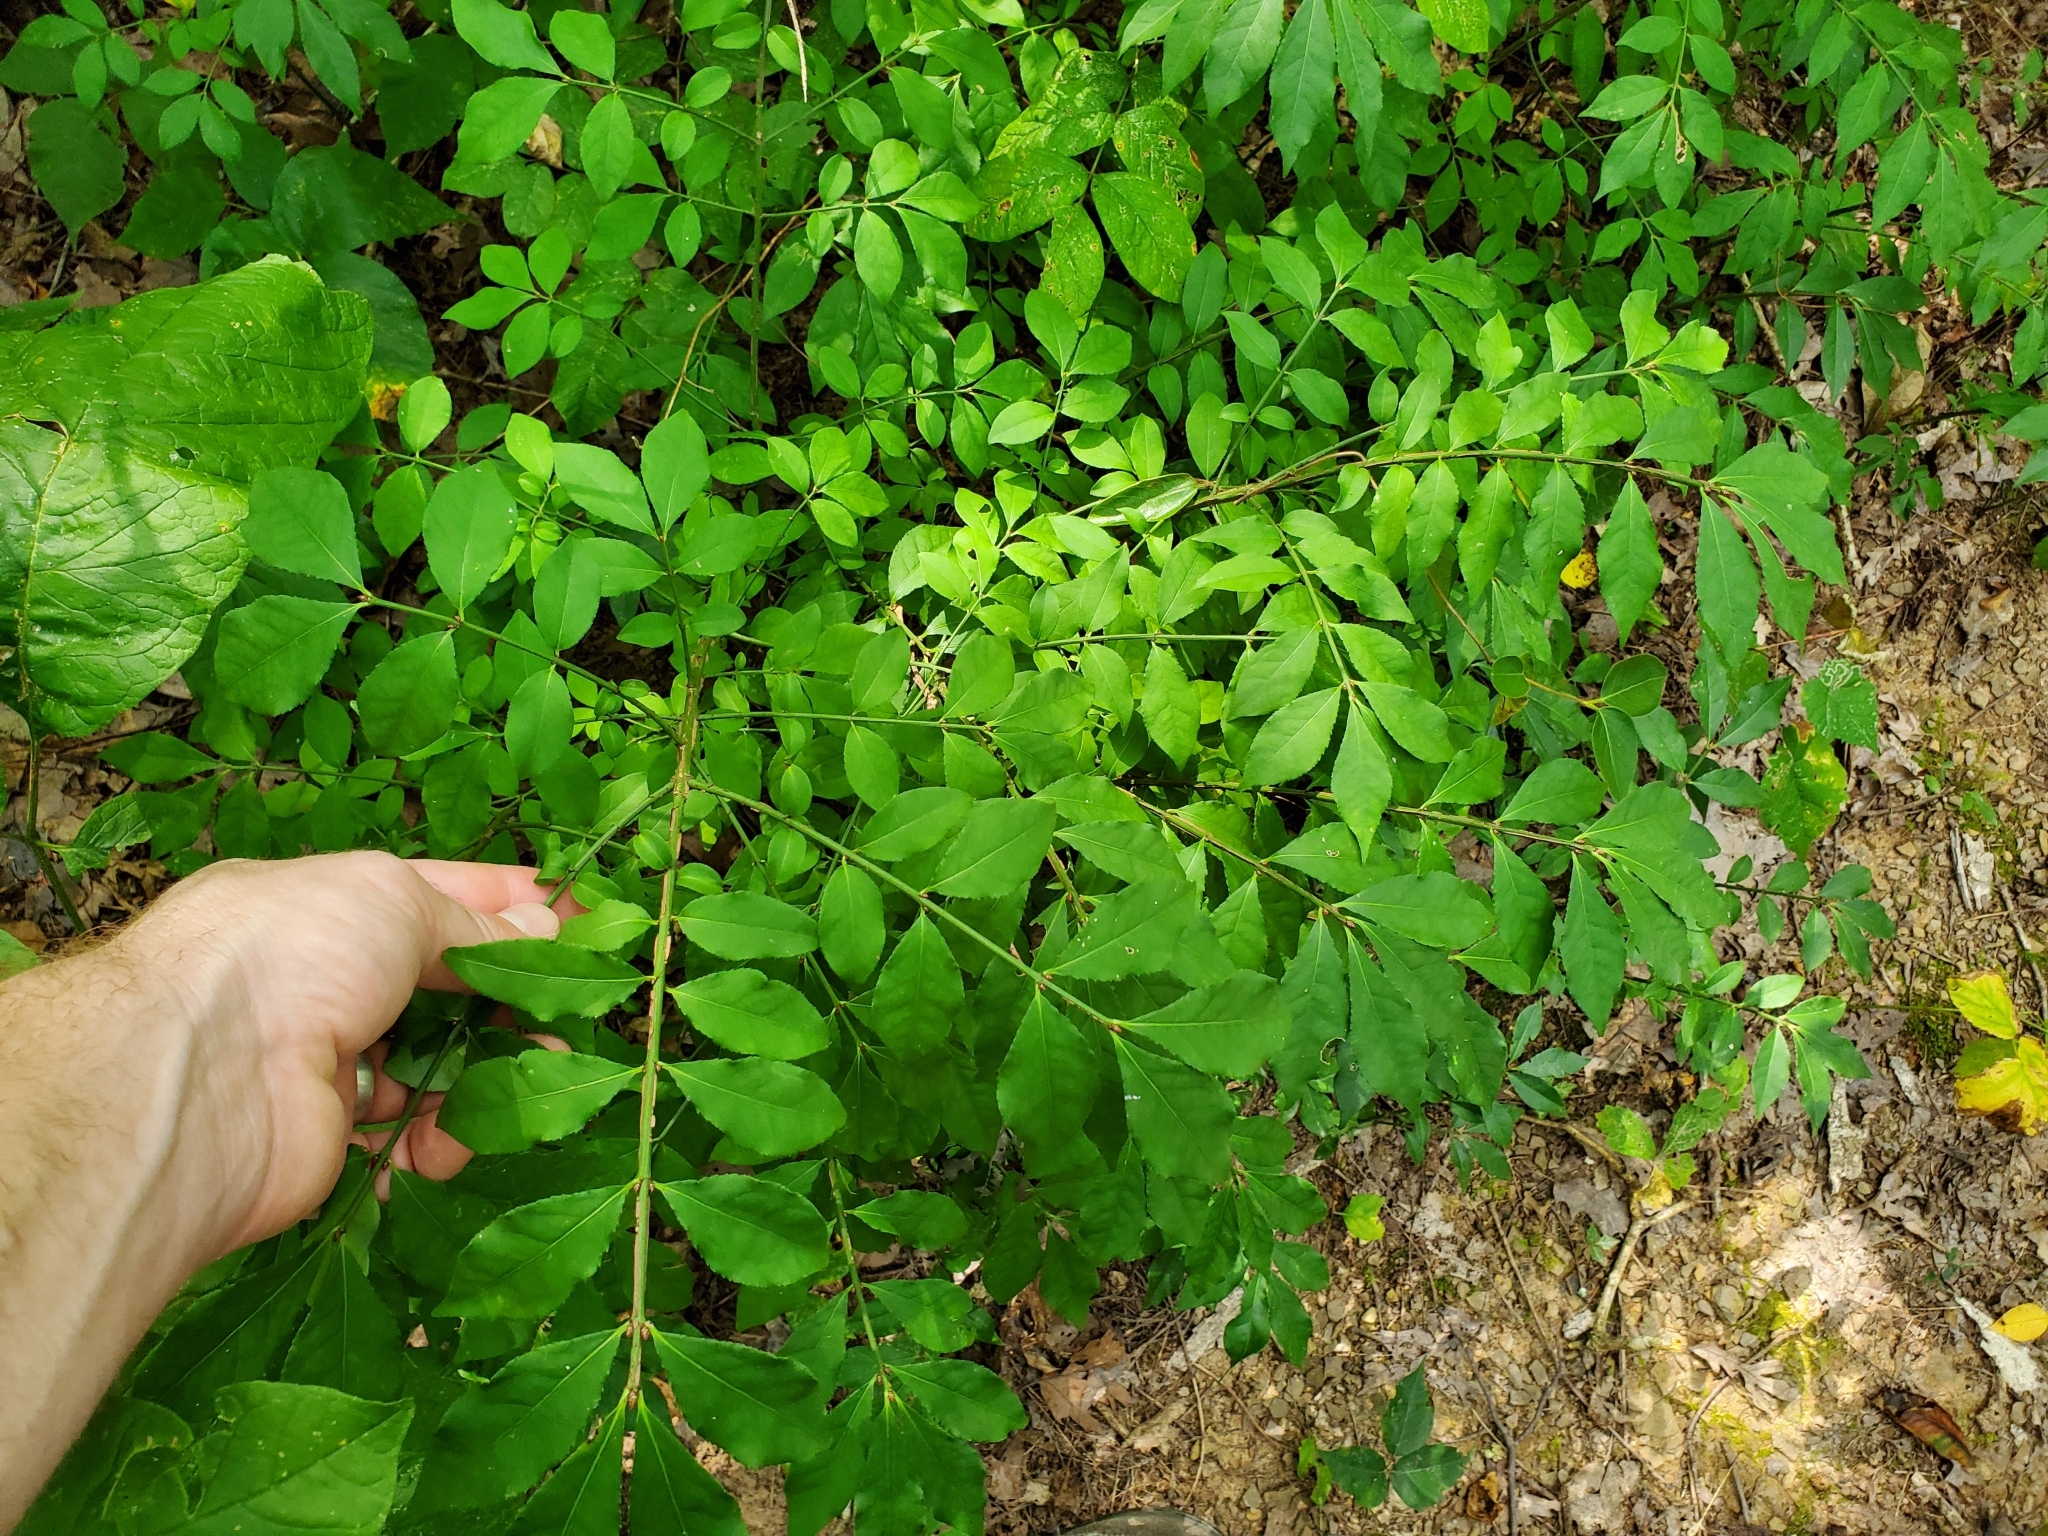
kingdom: Plantae
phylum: Tracheophyta
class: Magnoliopsida
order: Celastrales
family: Celastraceae
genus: Euonymus
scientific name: Euonymus alatus
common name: Winged euonymus
